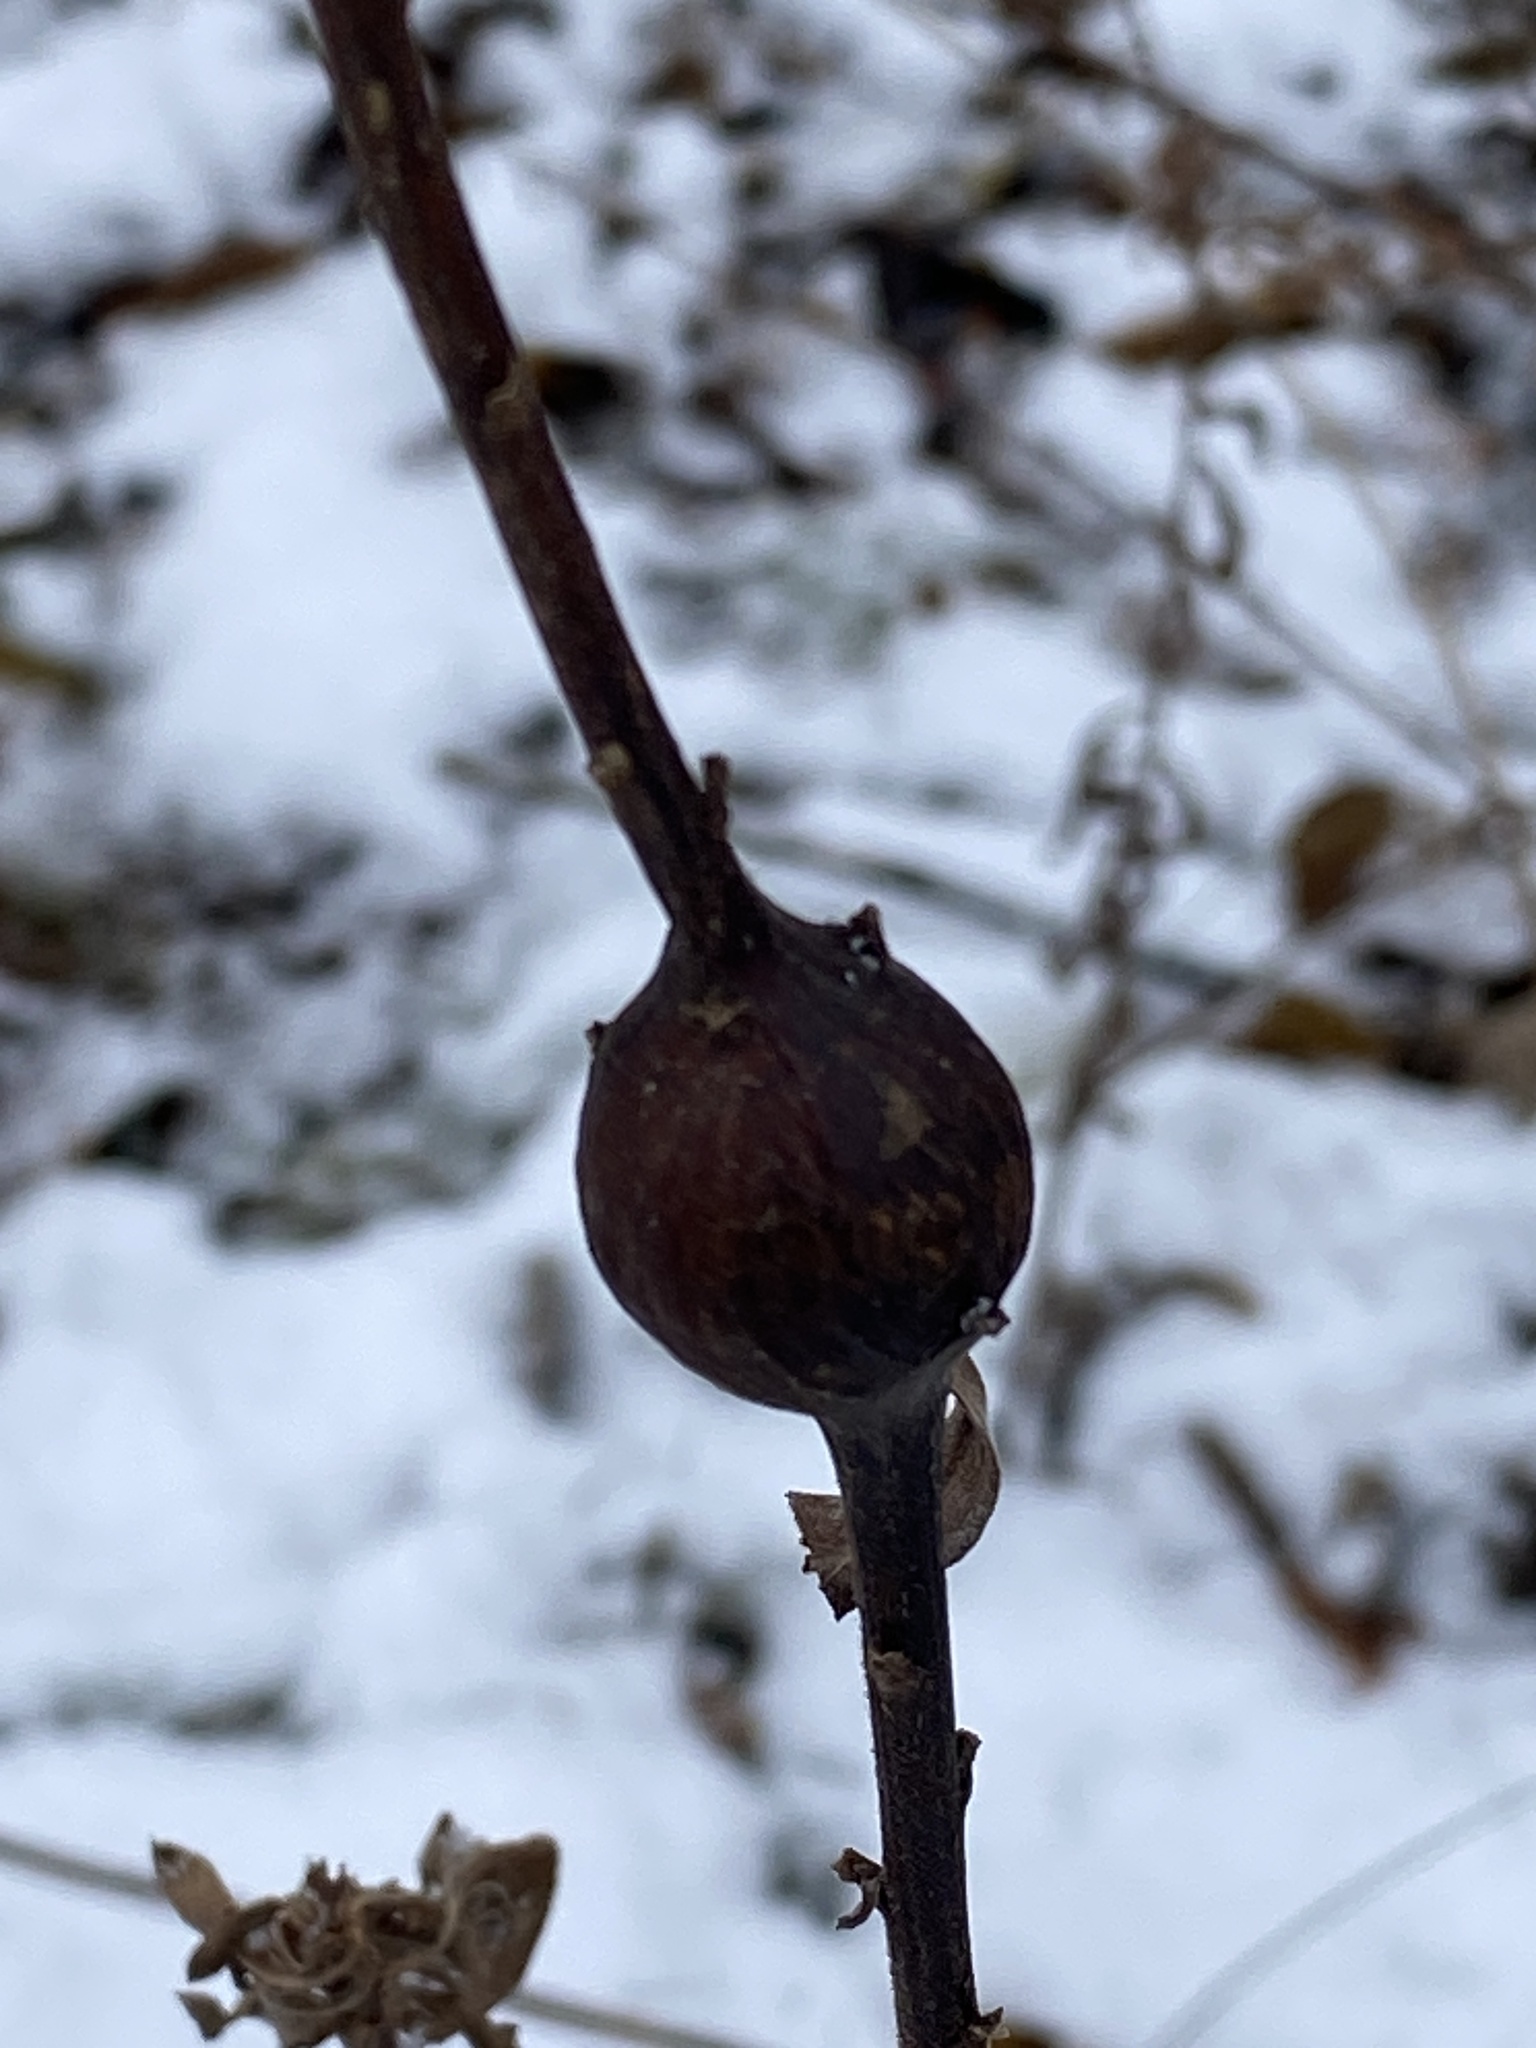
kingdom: Animalia
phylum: Arthropoda
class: Insecta
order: Diptera
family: Tephritidae
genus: Eurosta
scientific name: Eurosta solidaginis
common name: Goldenrod gall fly
